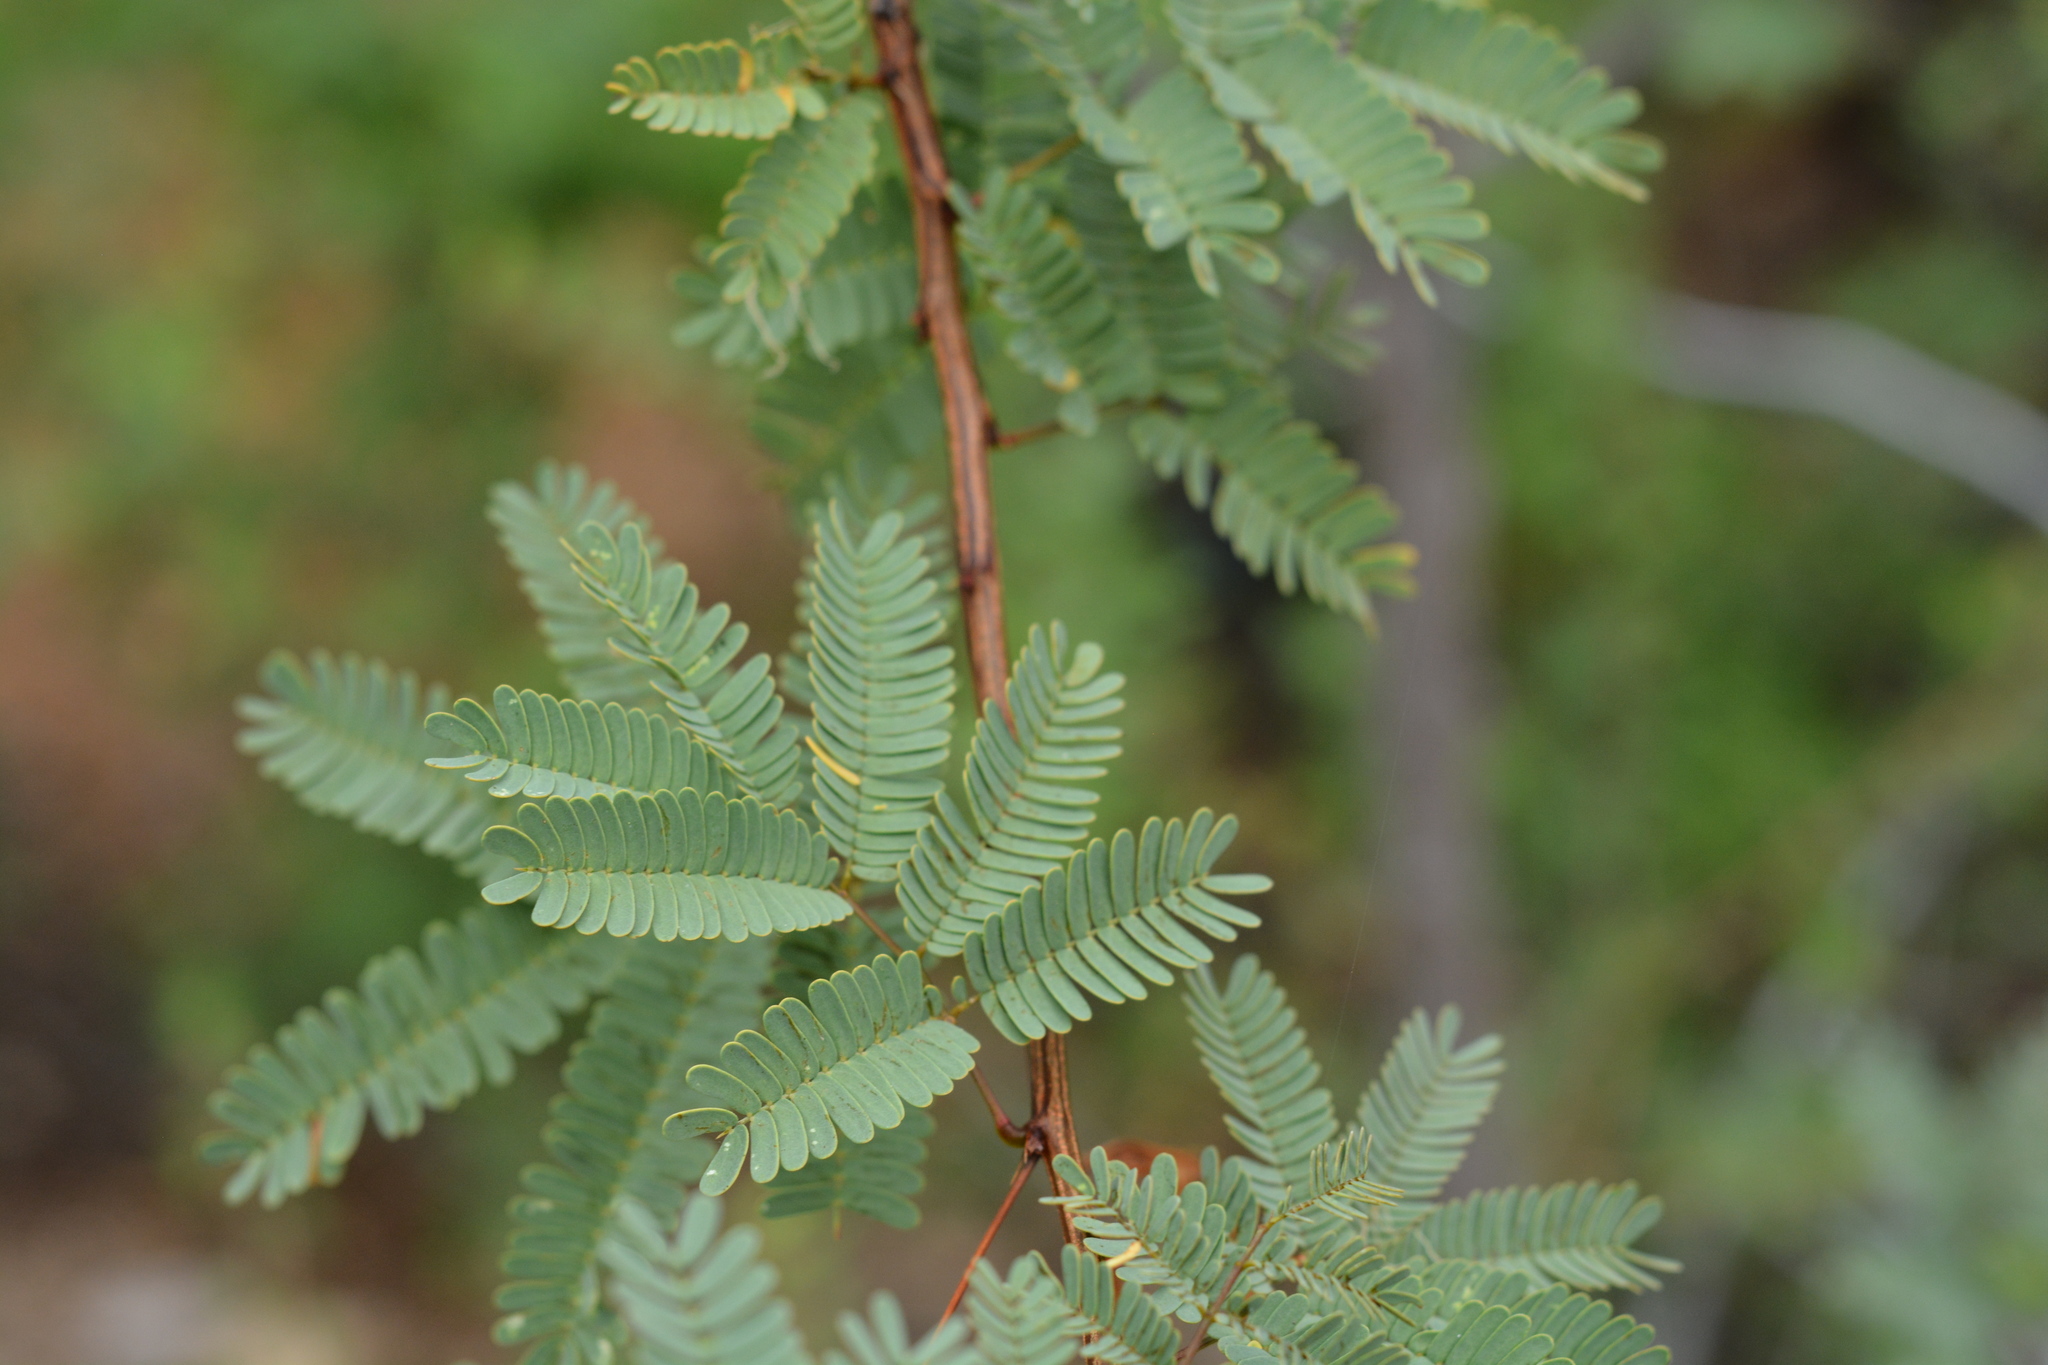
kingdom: Plantae
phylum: Tracheophyta
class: Magnoliopsida
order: Fabales
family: Fabaceae
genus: Desmanthus
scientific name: Desmanthus fruticosus
